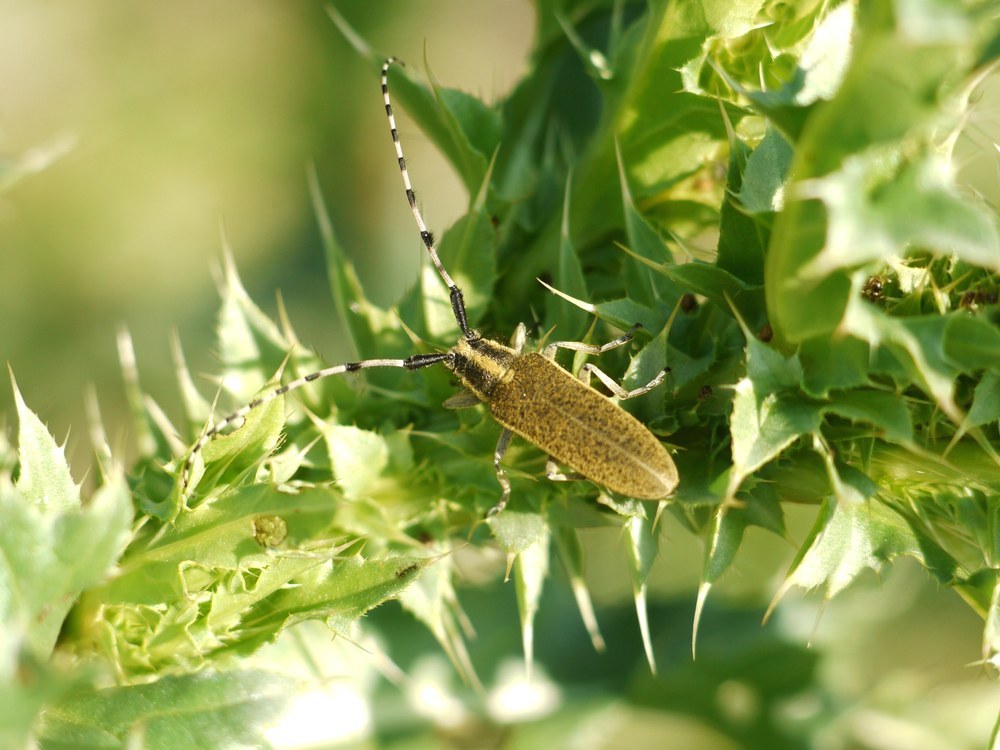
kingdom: Animalia
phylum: Arthropoda
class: Insecta
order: Coleoptera
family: Cerambycidae
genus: Agapanthia
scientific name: Agapanthia dahlii
